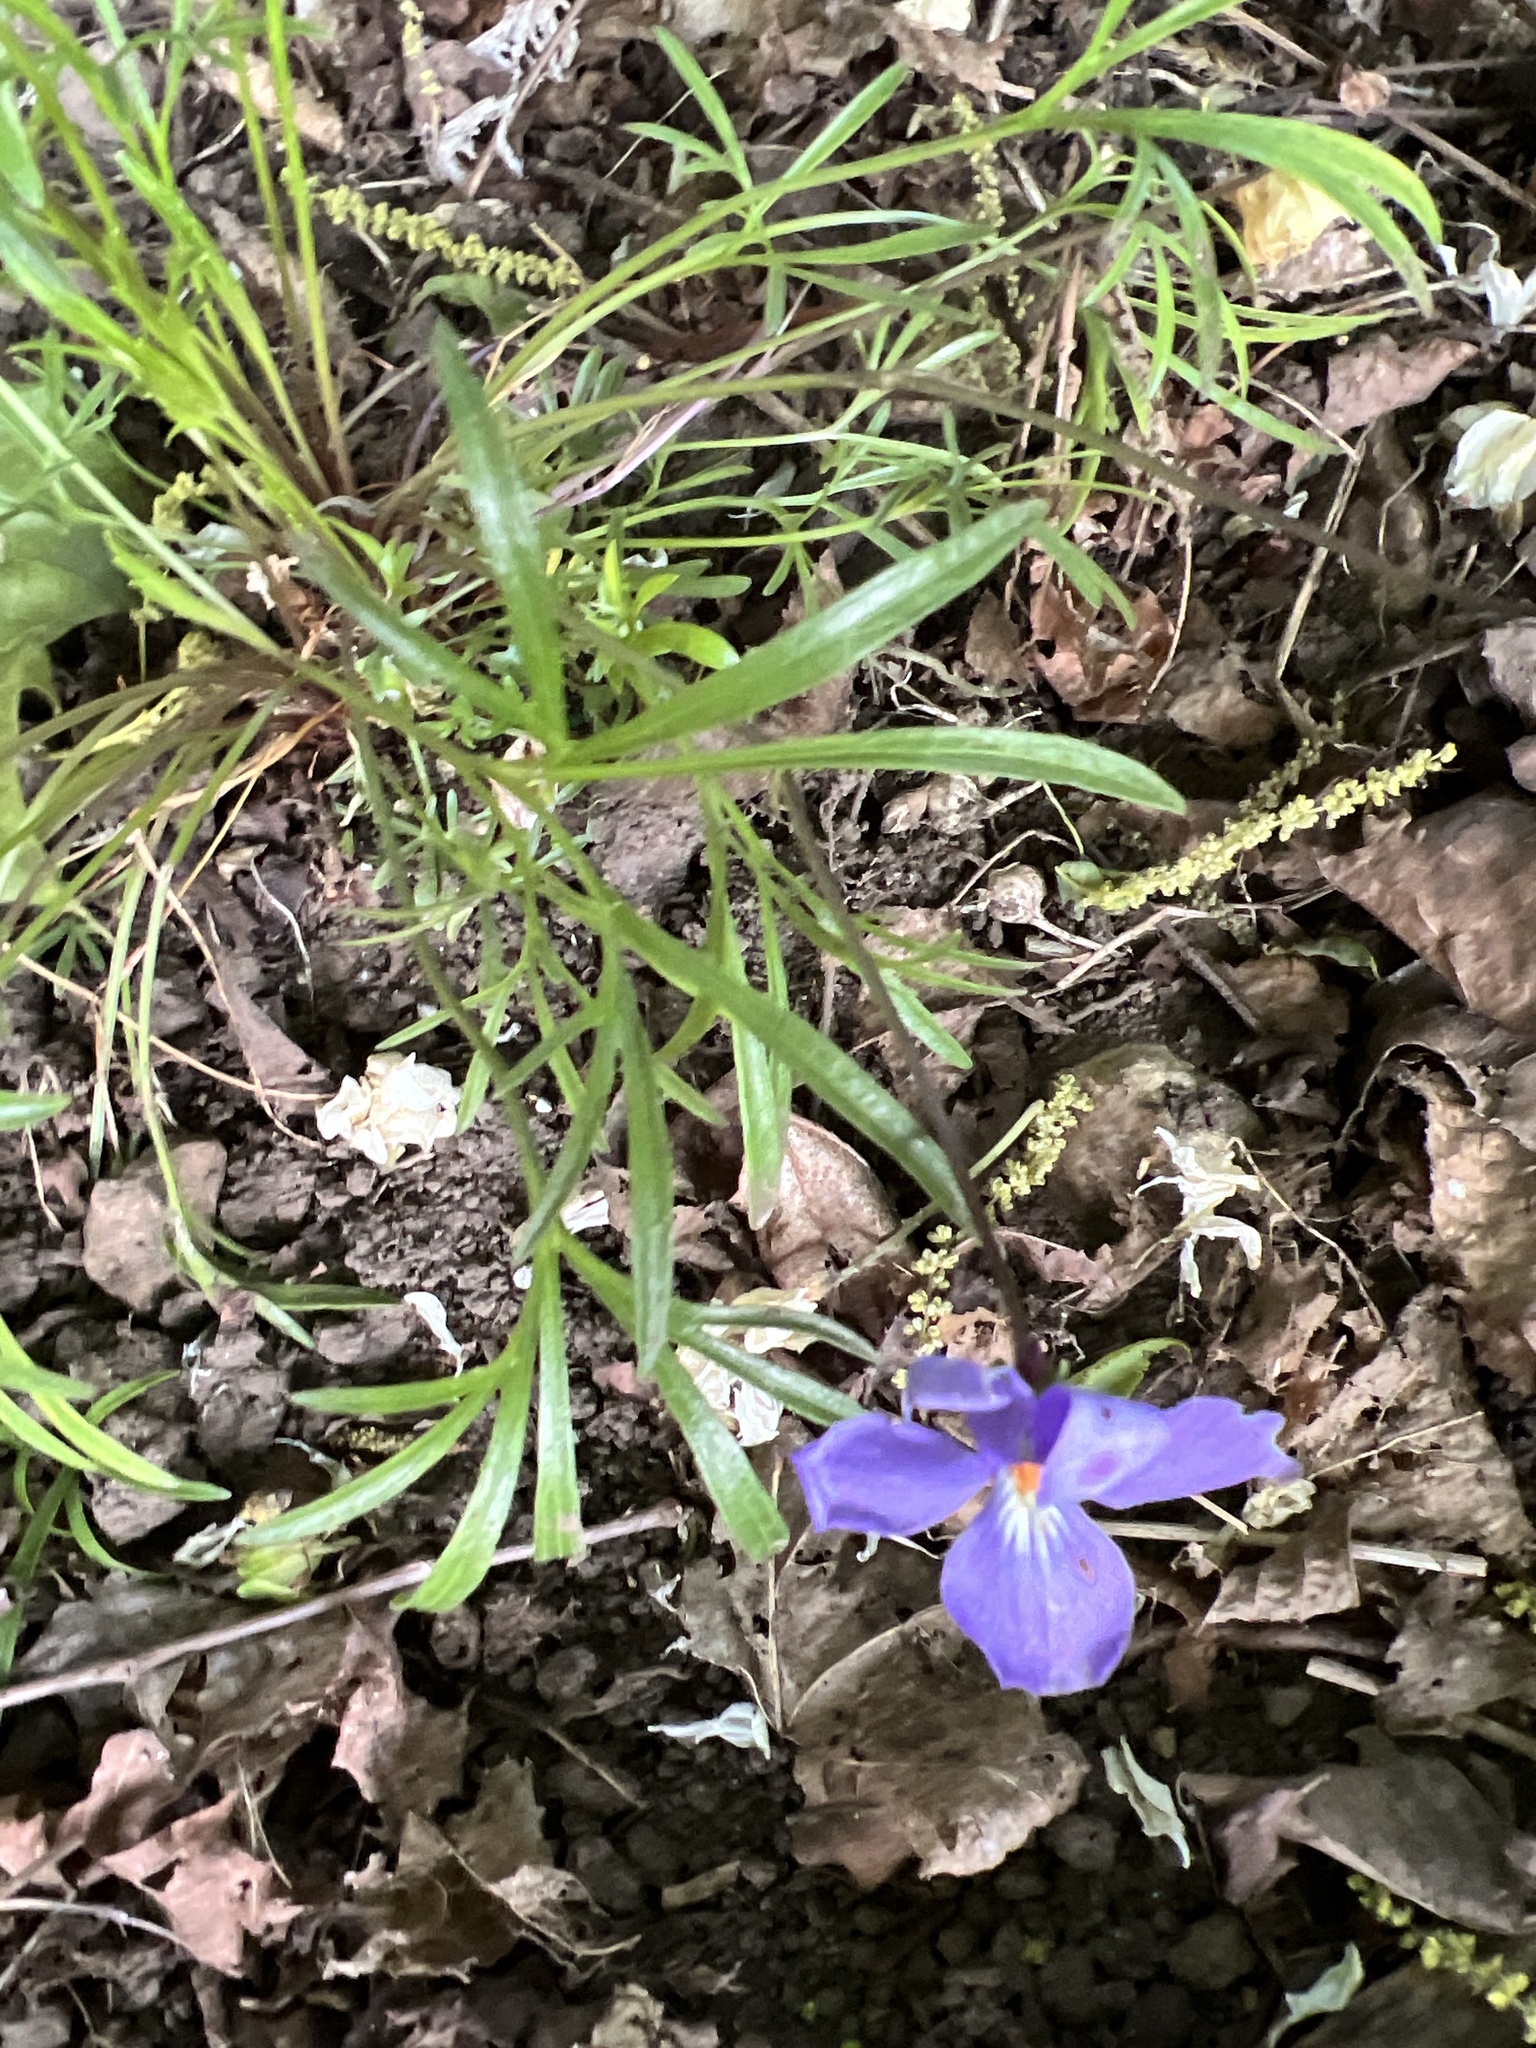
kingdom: Plantae
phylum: Tracheophyta
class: Magnoliopsida
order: Malpighiales
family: Violaceae
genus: Viola
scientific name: Viola pedata
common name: Pansy violet
